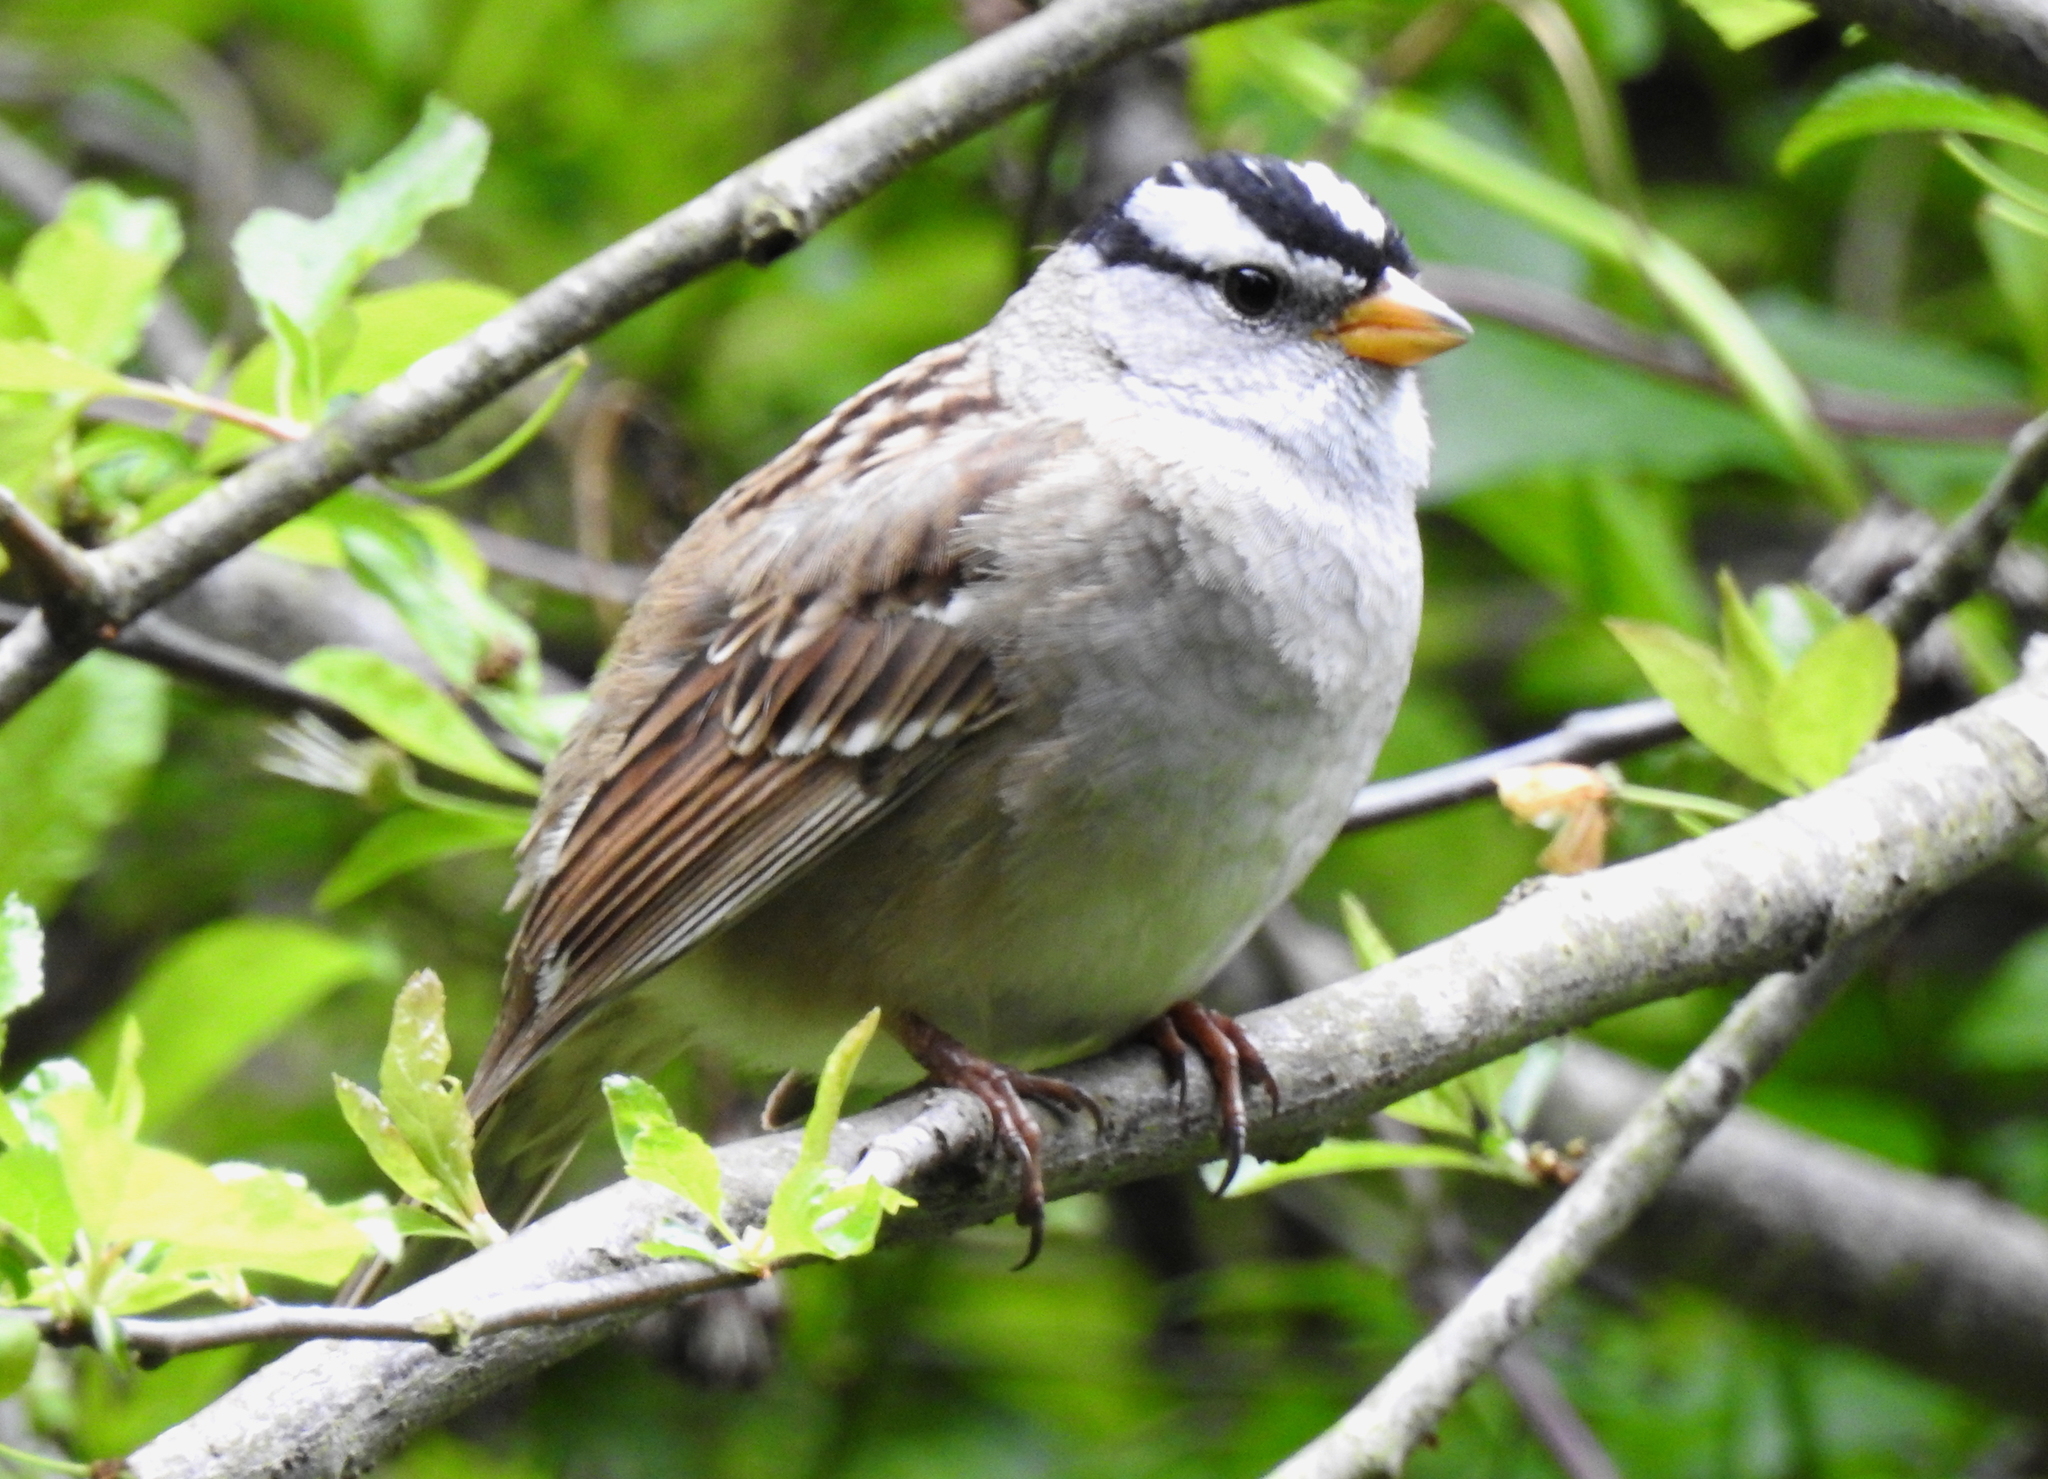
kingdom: Animalia
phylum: Chordata
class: Aves
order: Passeriformes
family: Passerellidae
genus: Zonotrichia
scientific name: Zonotrichia leucophrys
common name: White-crowned sparrow
